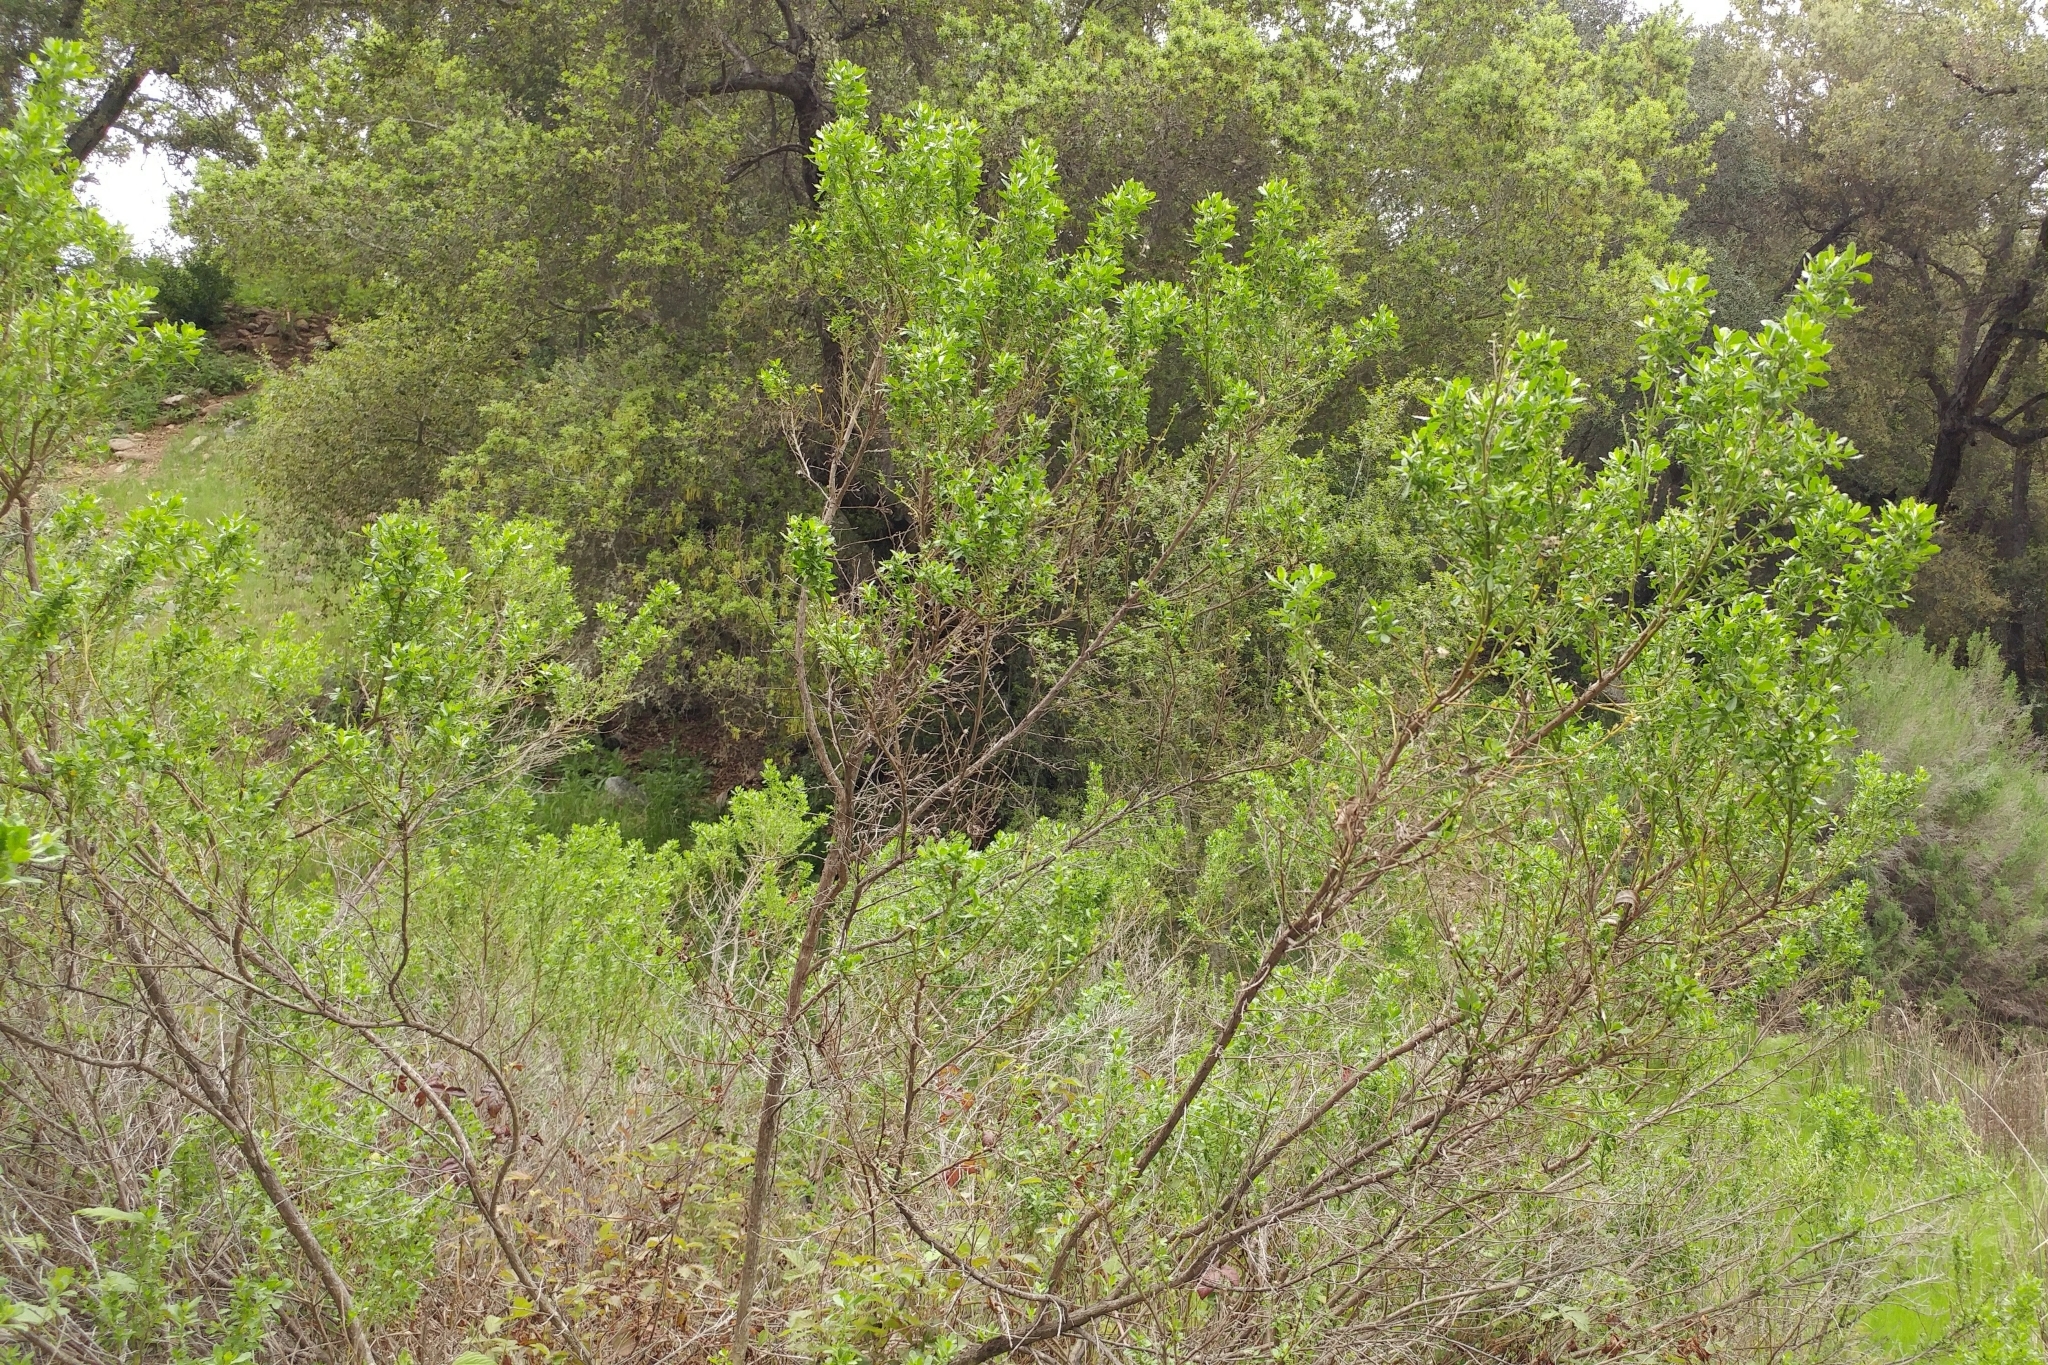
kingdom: Plantae
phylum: Tracheophyta
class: Magnoliopsida
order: Asterales
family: Asteraceae
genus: Baccharis
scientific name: Baccharis pilularis
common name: Coyotebrush
